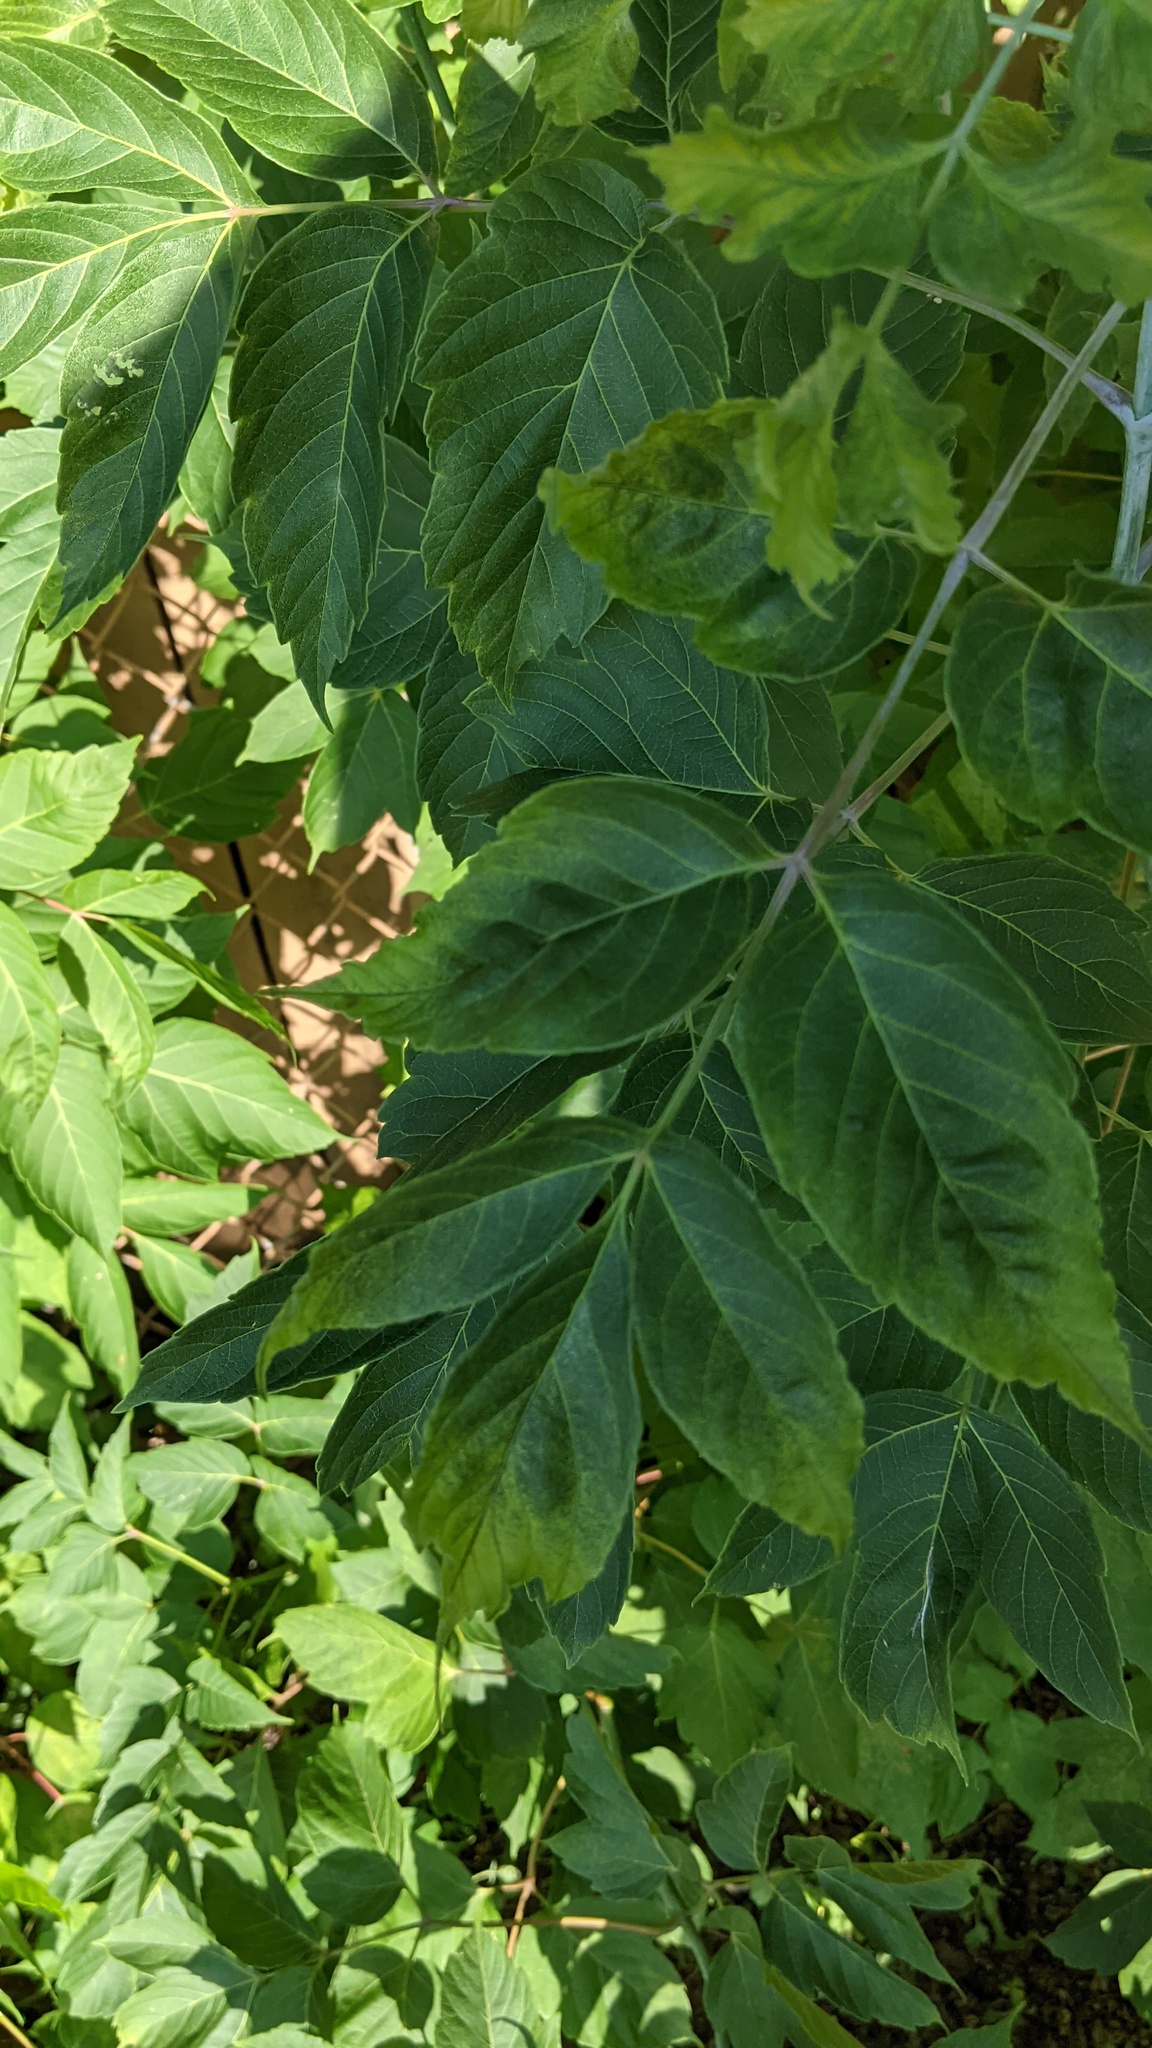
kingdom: Plantae
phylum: Tracheophyta
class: Magnoliopsida
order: Sapindales
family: Sapindaceae
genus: Acer
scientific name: Acer negundo
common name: Ashleaf maple
